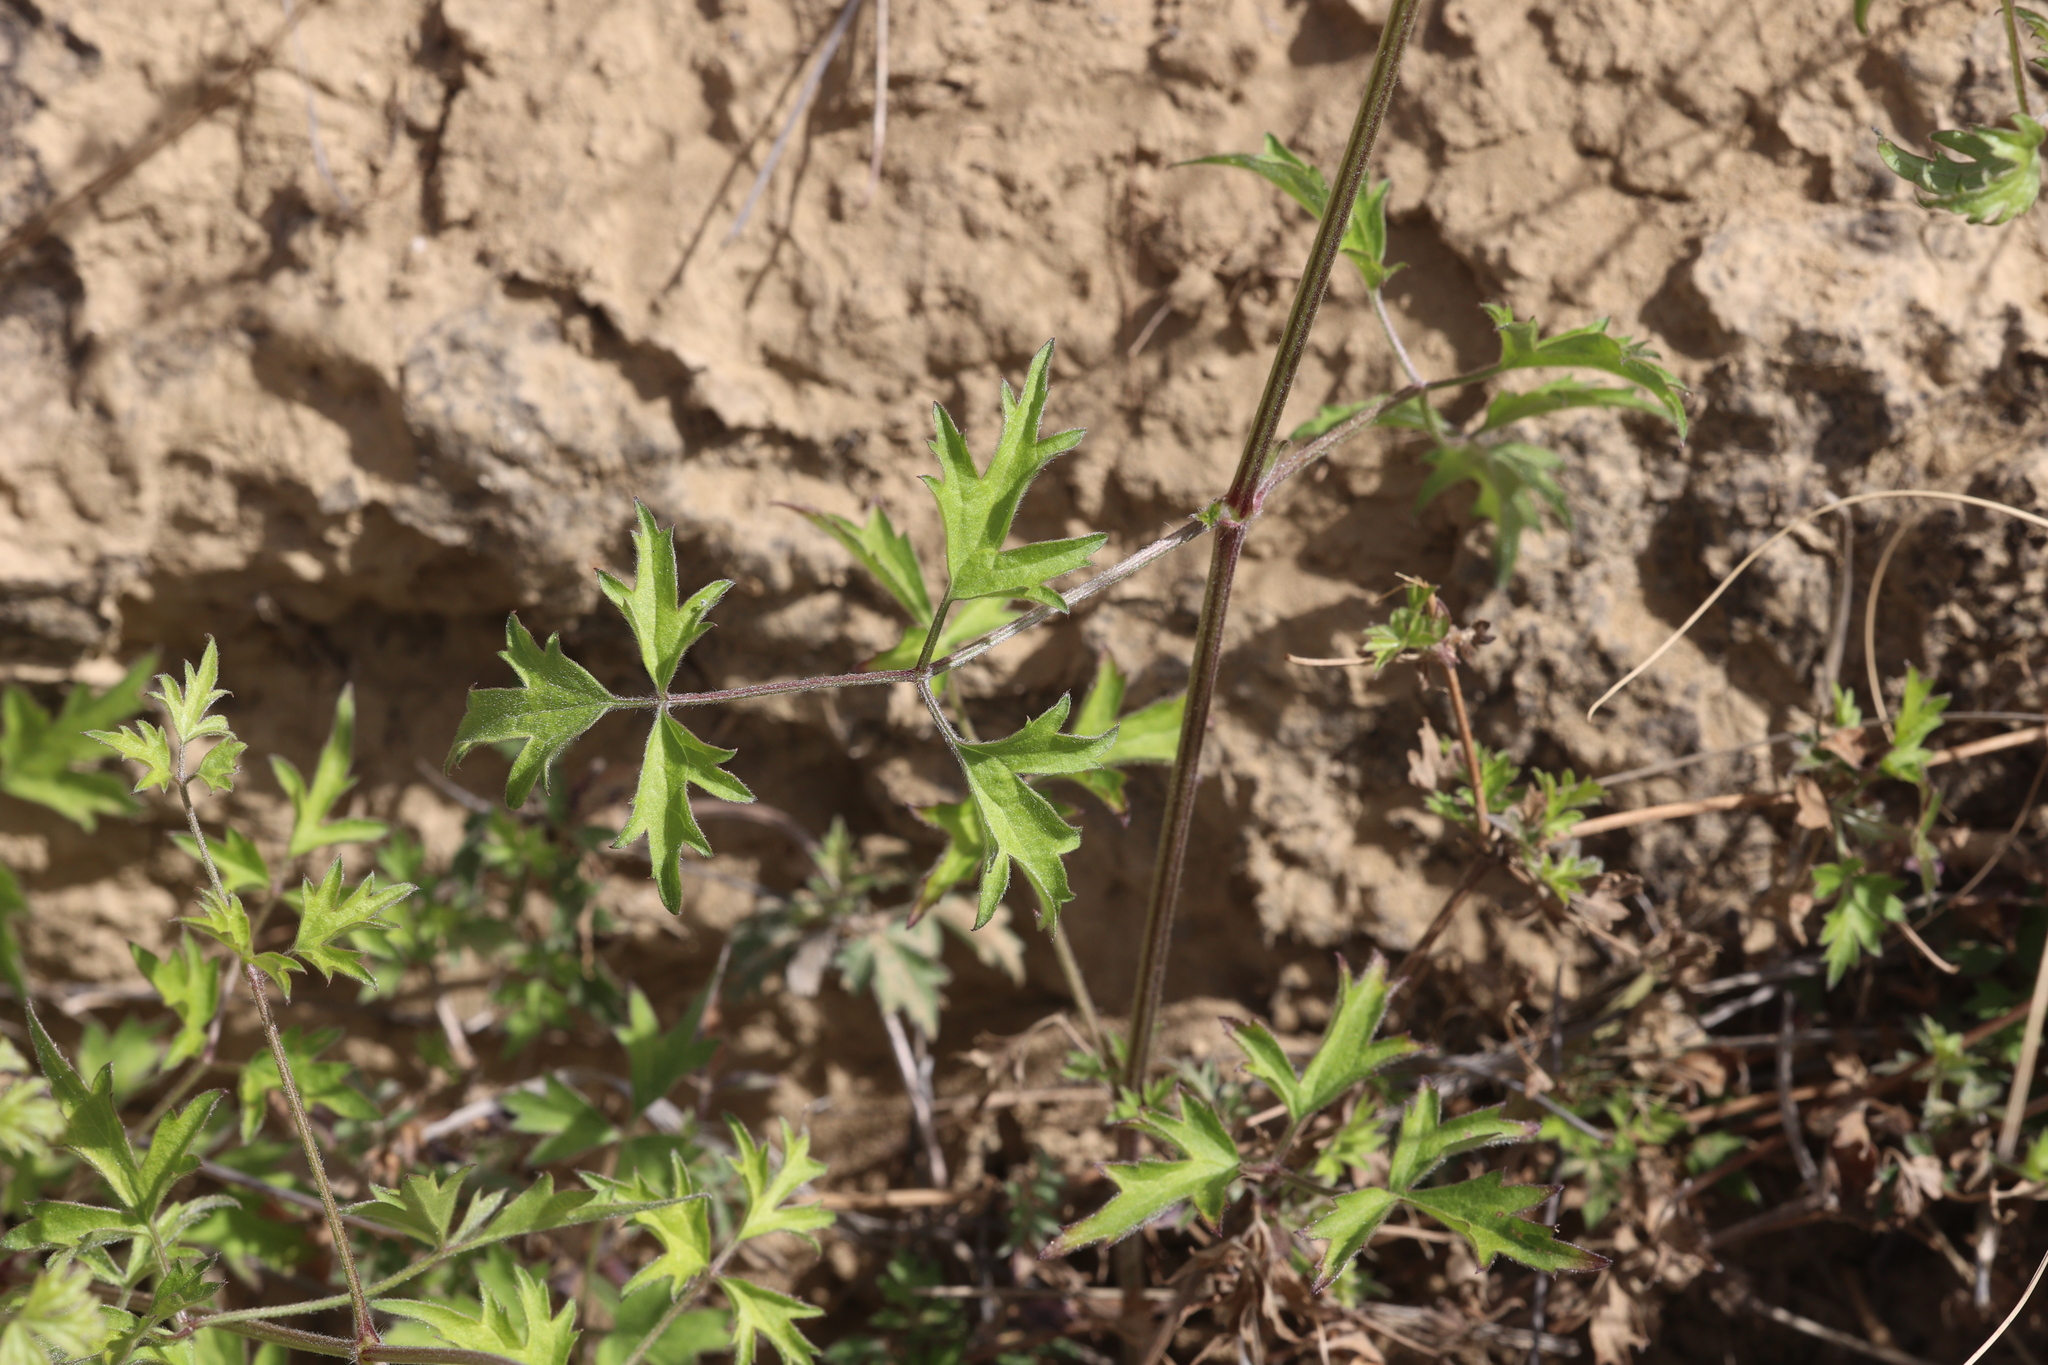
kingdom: Plantae
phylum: Tracheophyta
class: Magnoliopsida
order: Ranunculales
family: Ranunculaceae
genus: Clematis
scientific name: Clematis drummondii
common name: Texas virgin's bower
